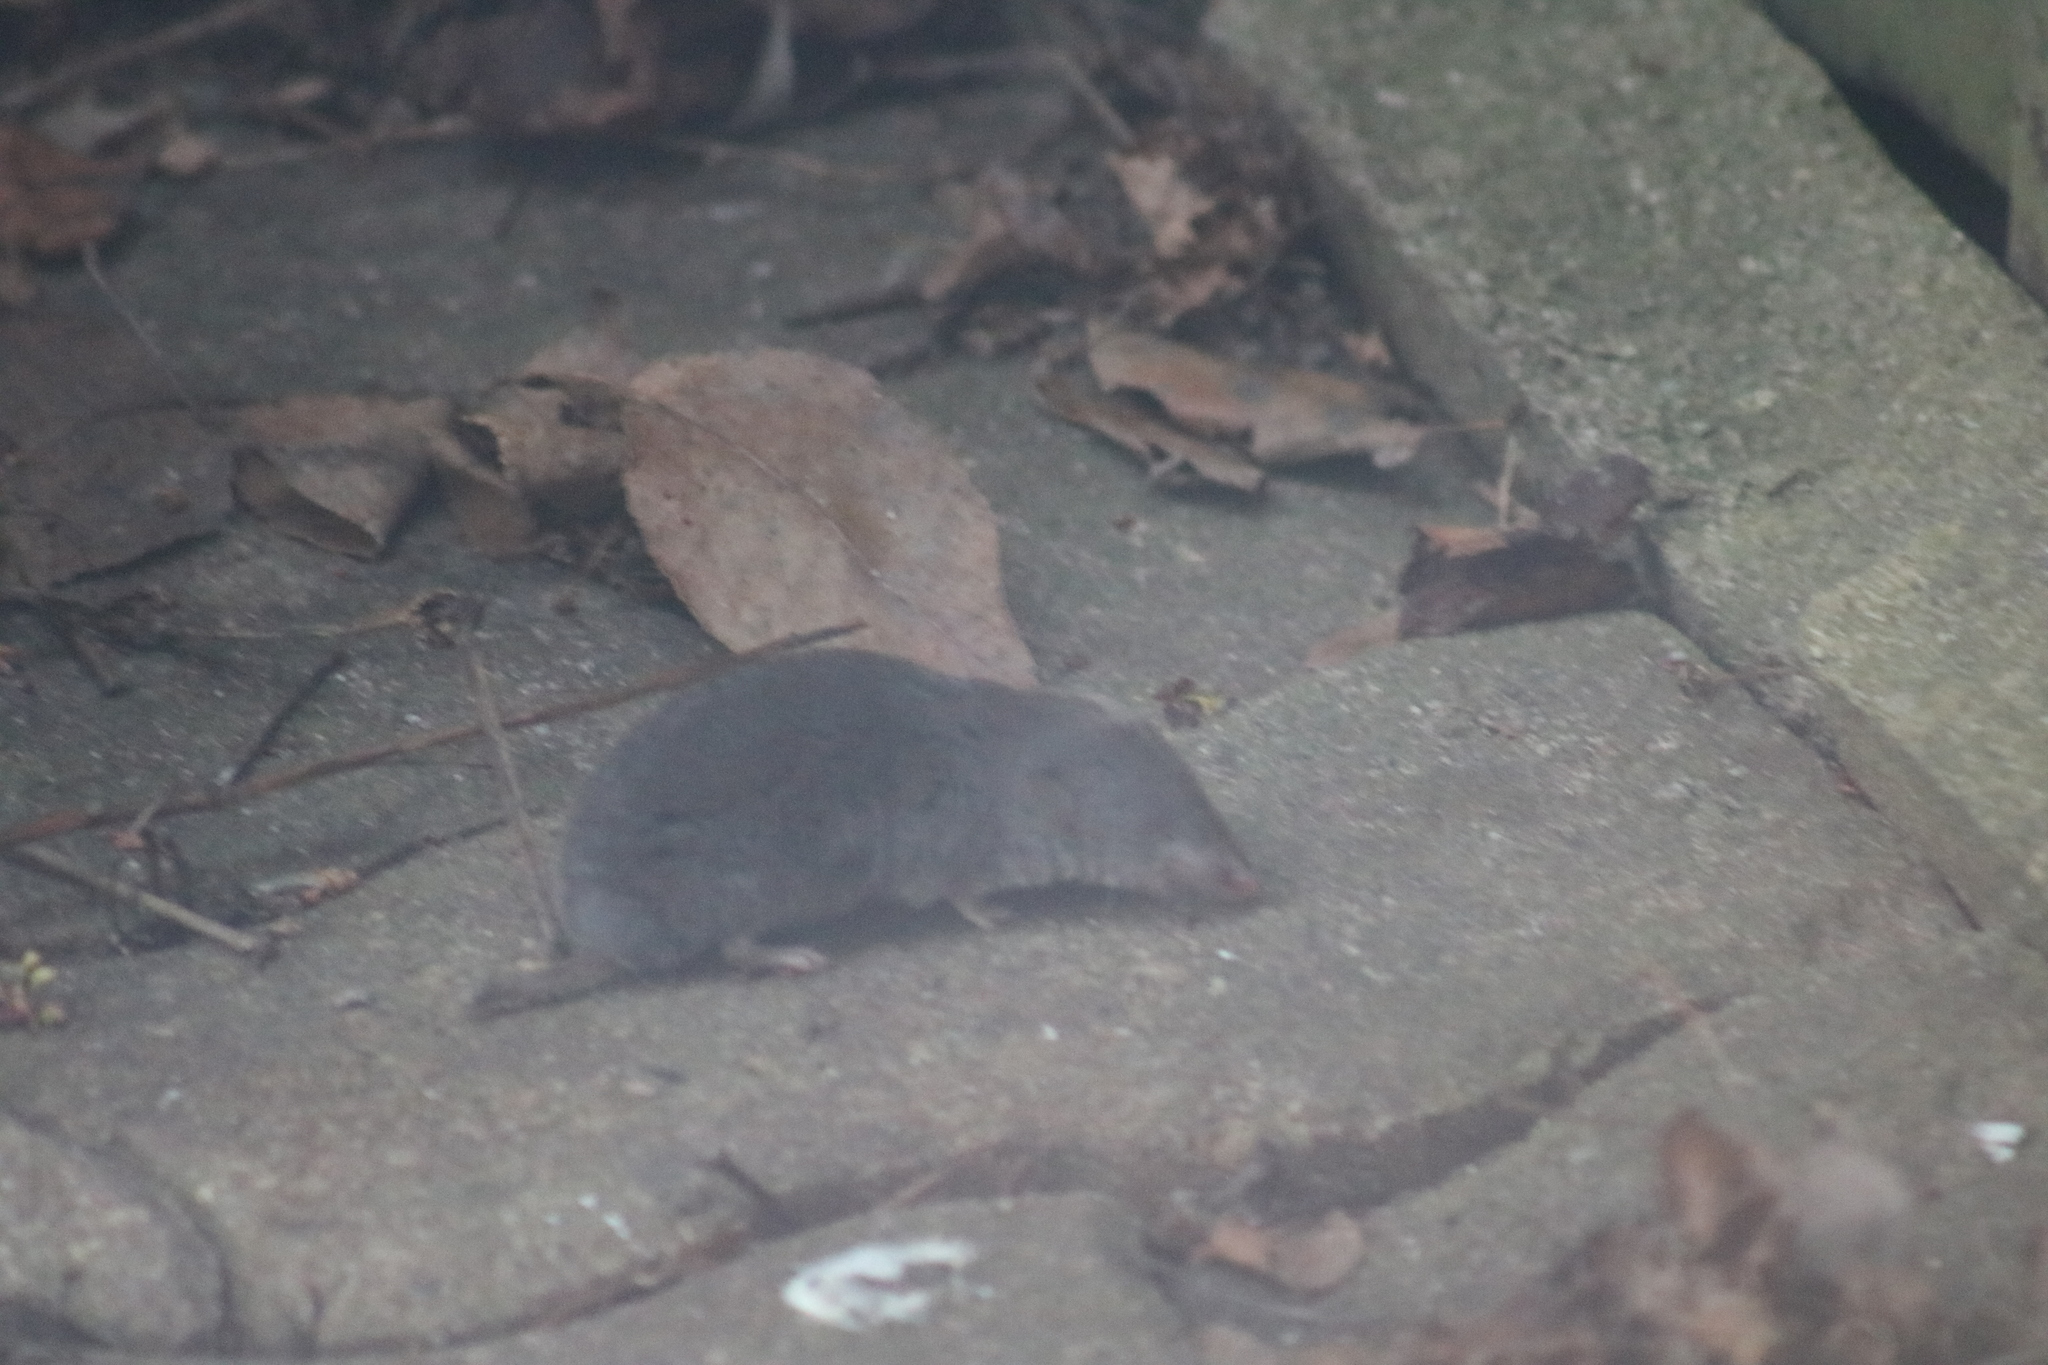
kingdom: Animalia
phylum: Chordata
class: Mammalia
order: Soricomorpha
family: Soricidae
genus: Blarina
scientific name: Blarina brevicauda
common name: Northern short-tailed shrew
